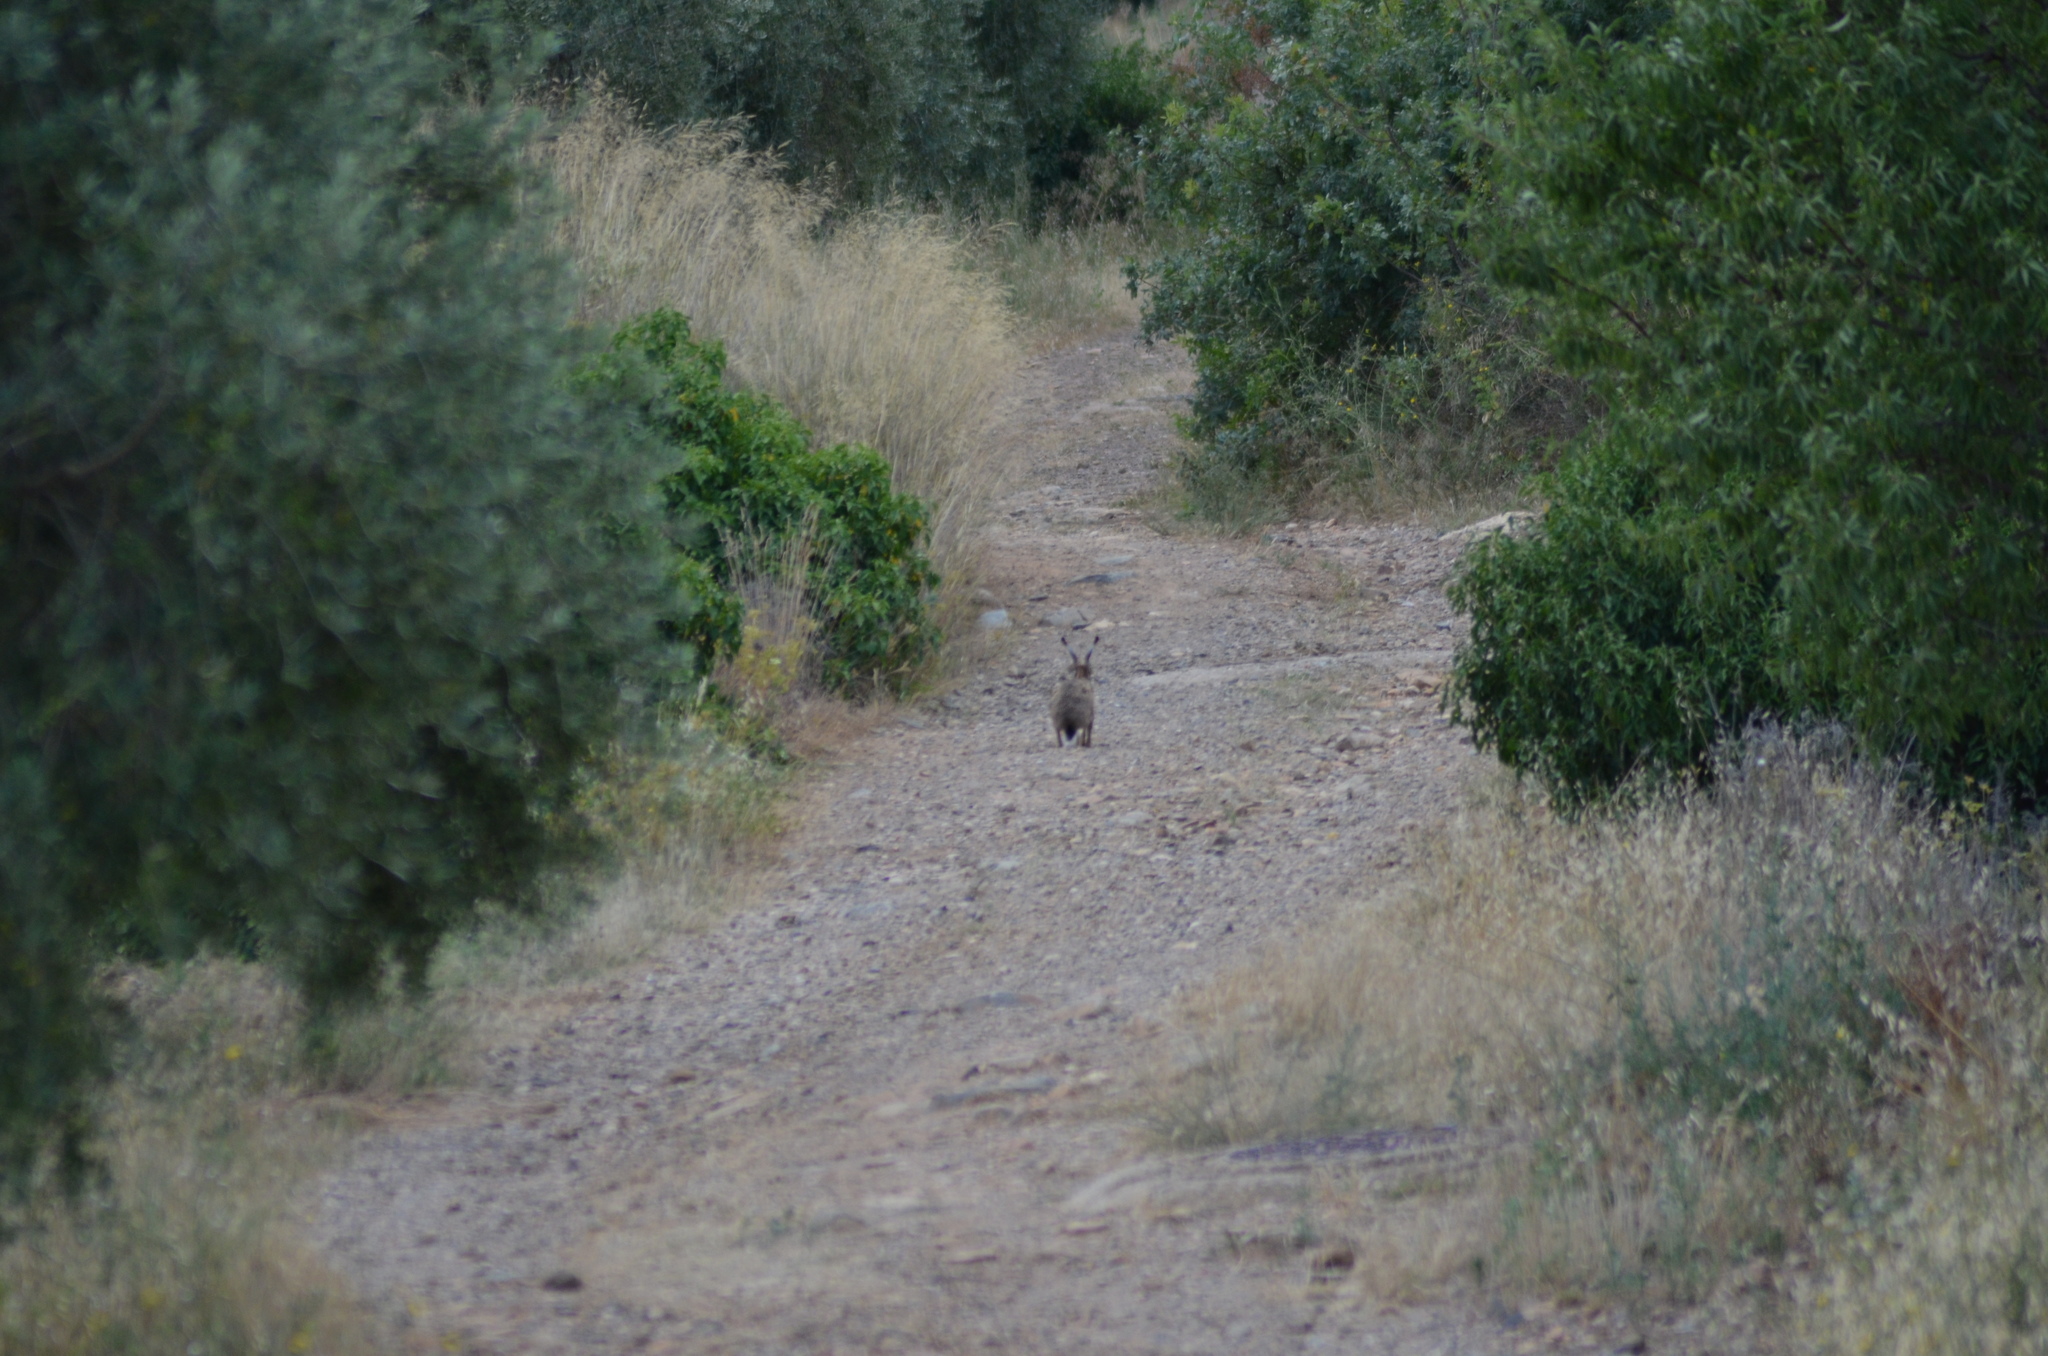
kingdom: Animalia
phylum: Chordata
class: Mammalia
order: Lagomorpha
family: Leporidae
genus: Lepus
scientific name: Lepus europaeus
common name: European hare
